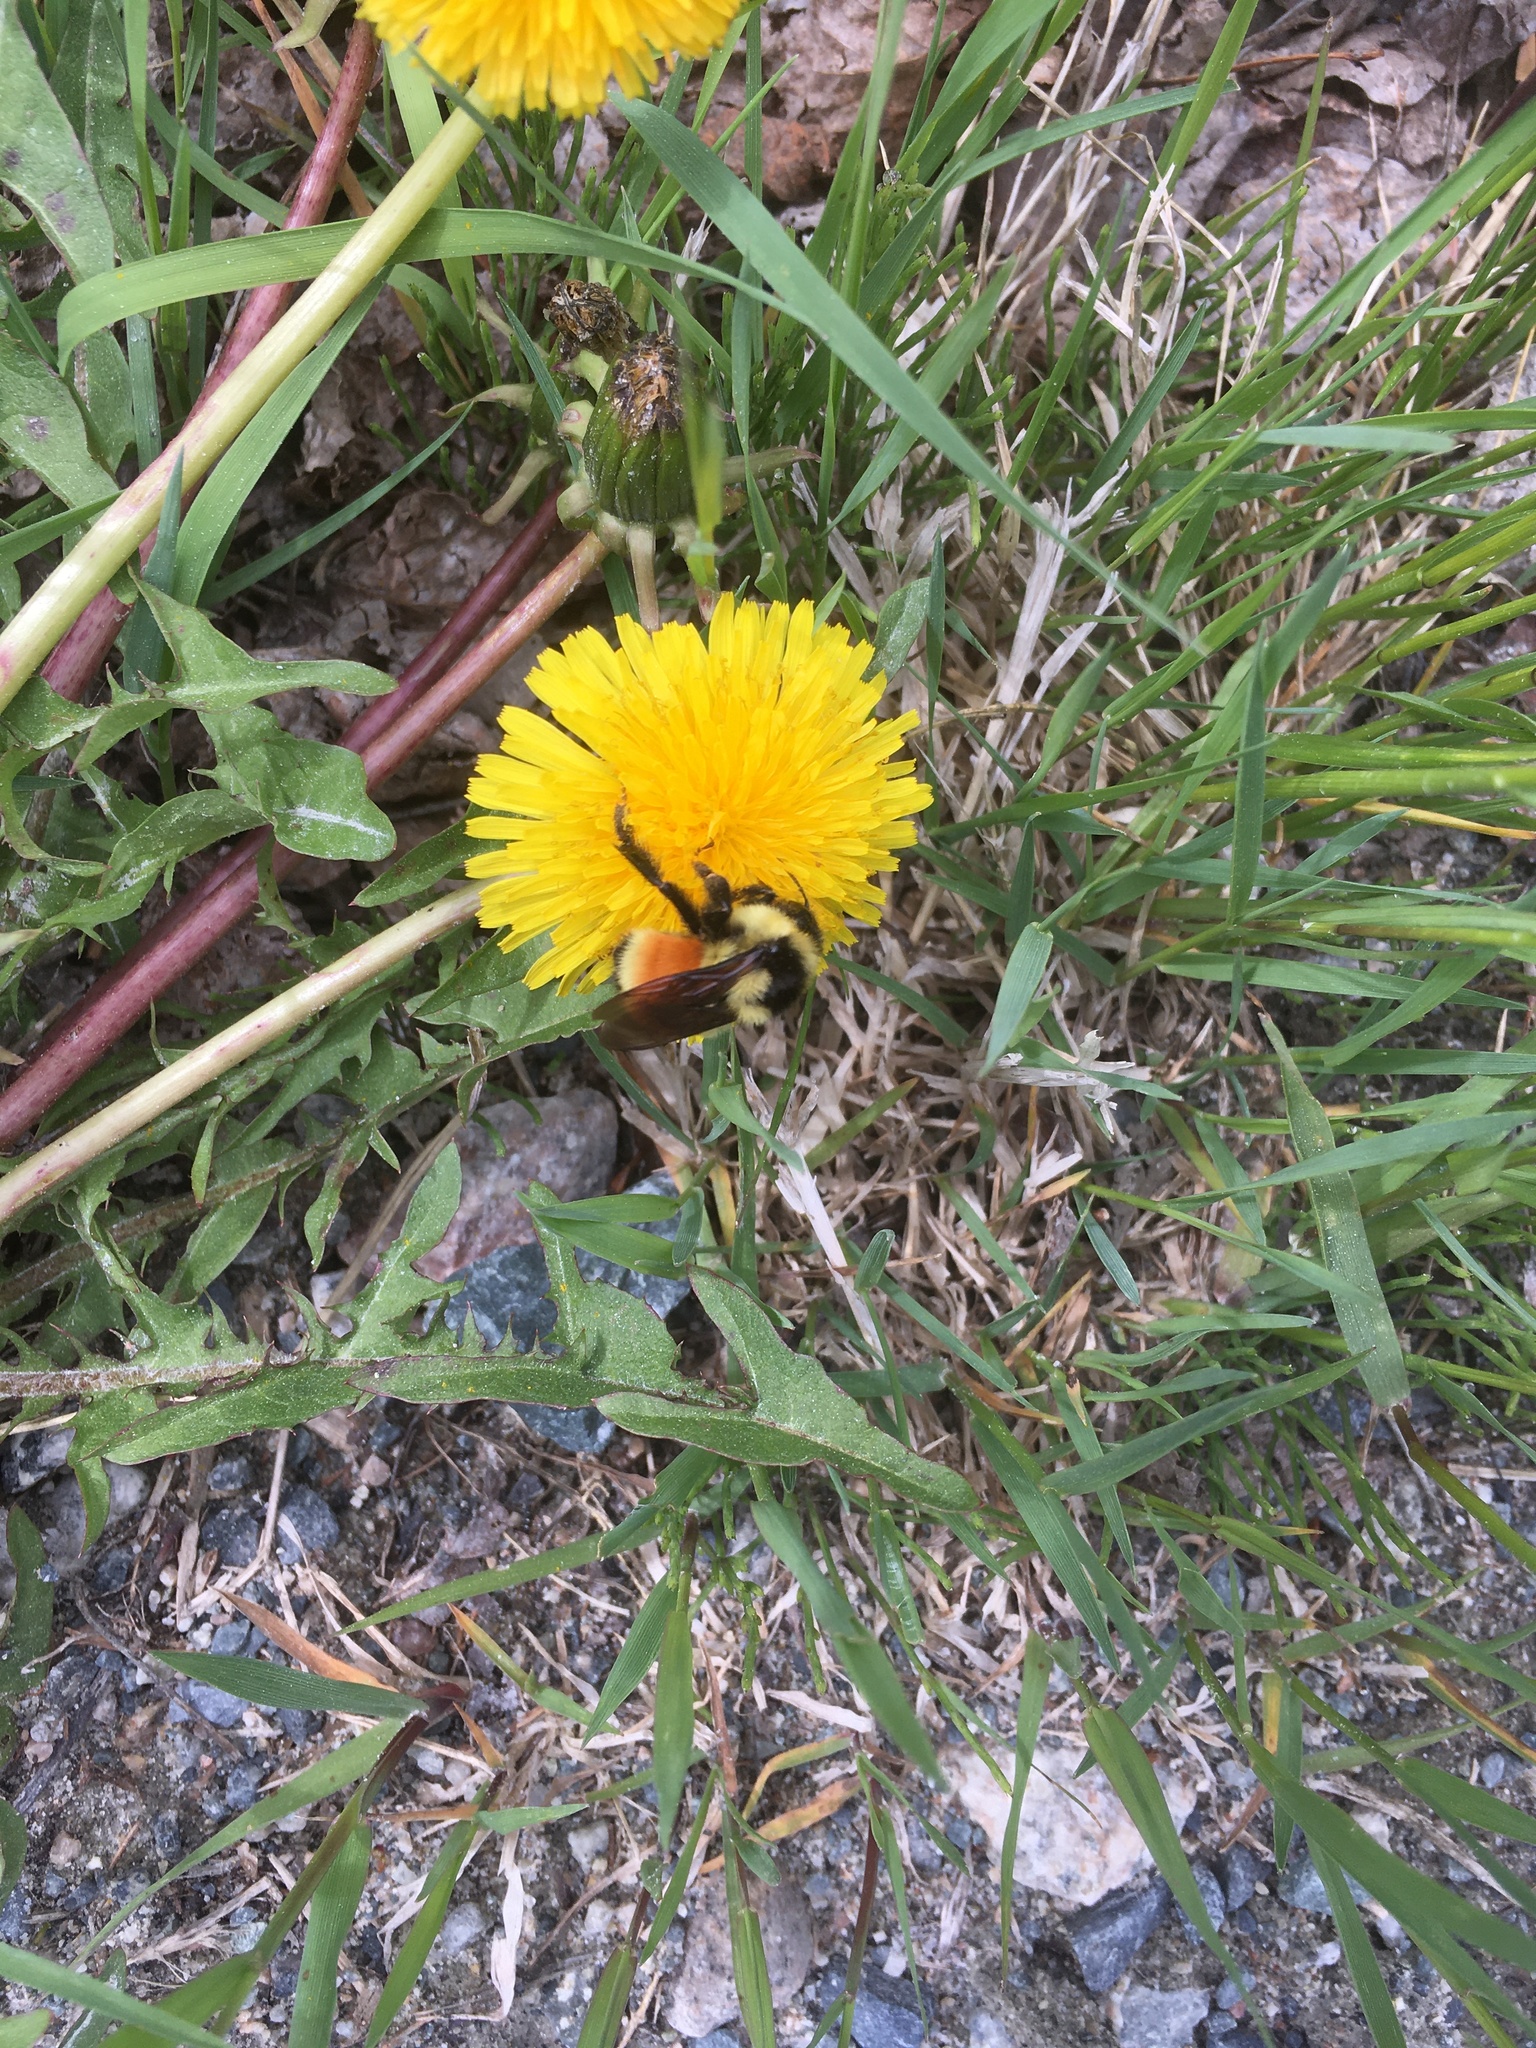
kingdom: Animalia
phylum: Arthropoda
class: Insecta
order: Hymenoptera
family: Apidae
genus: Bombus
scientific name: Bombus ternarius
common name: Tri-colored bumble bee
